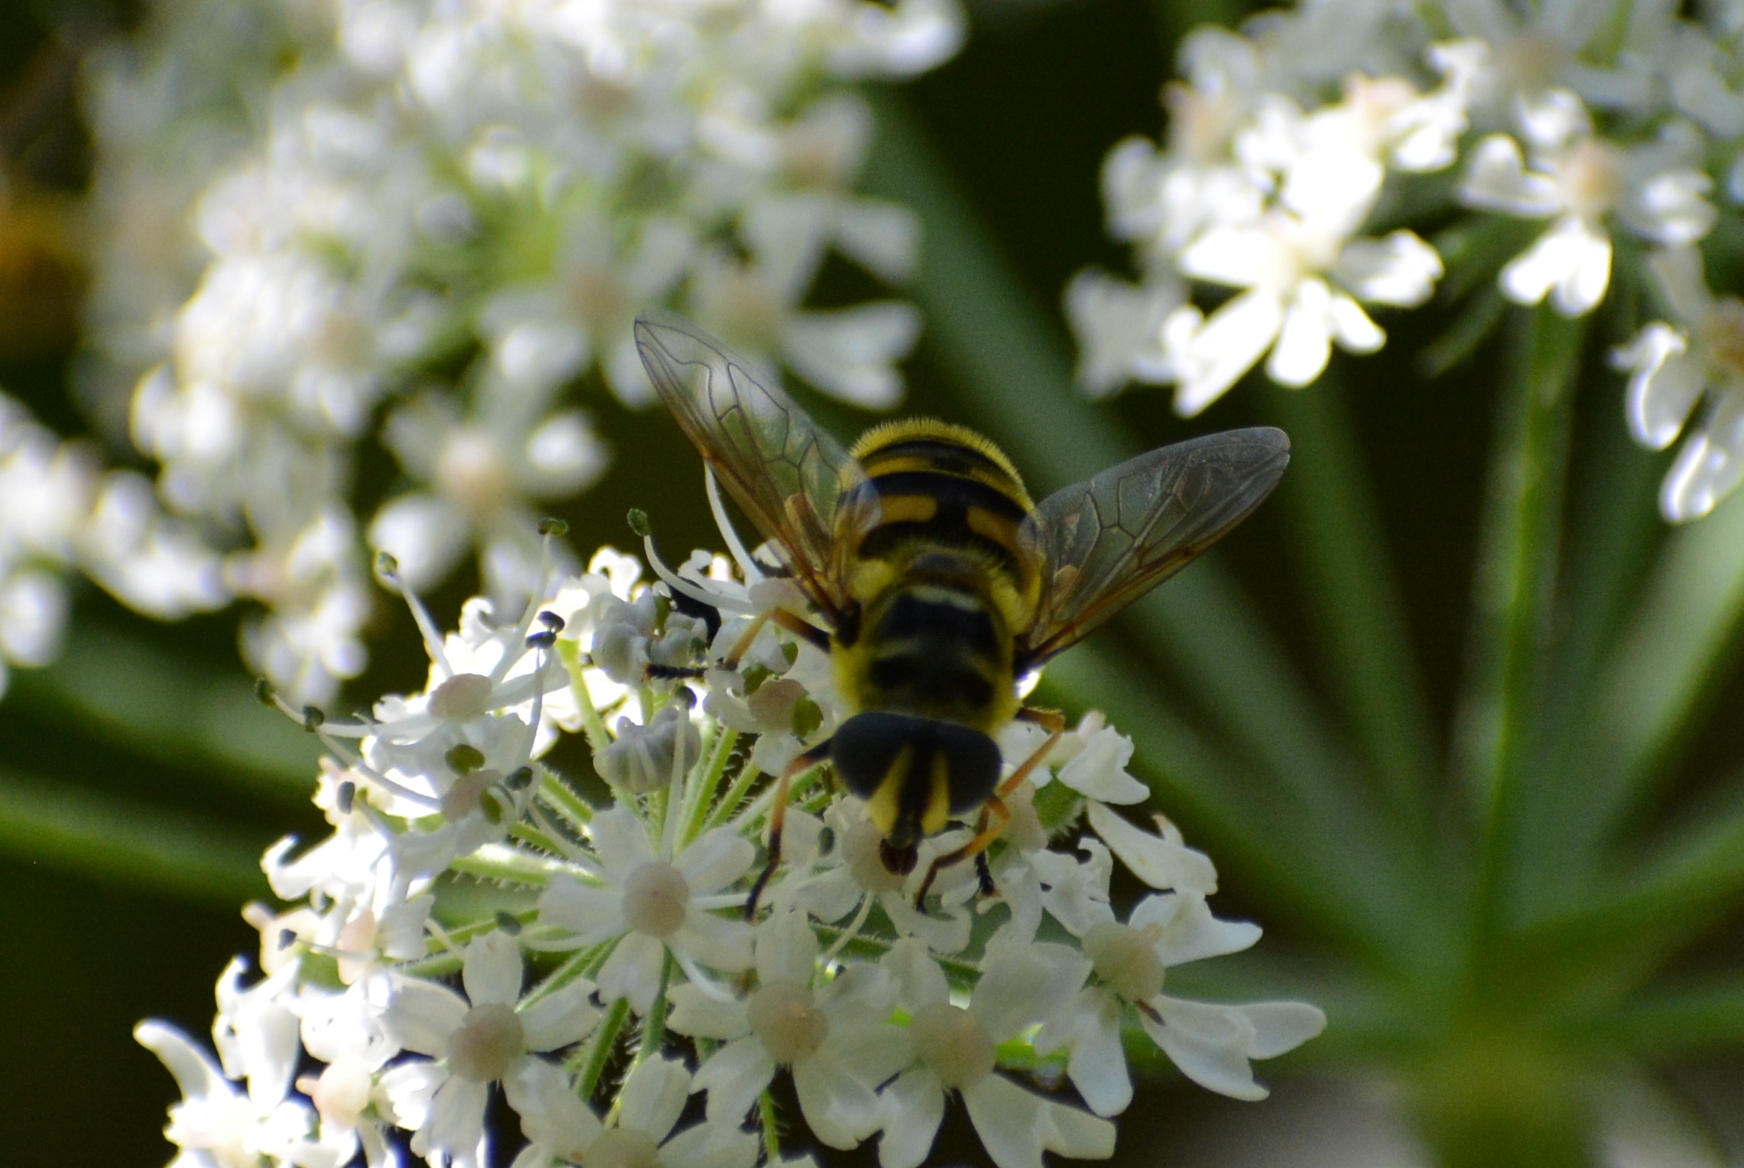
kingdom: Animalia
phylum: Arthropoda
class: Insecta
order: Diptera
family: Syrphidae
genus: Myathropa
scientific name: Myathropa florea
